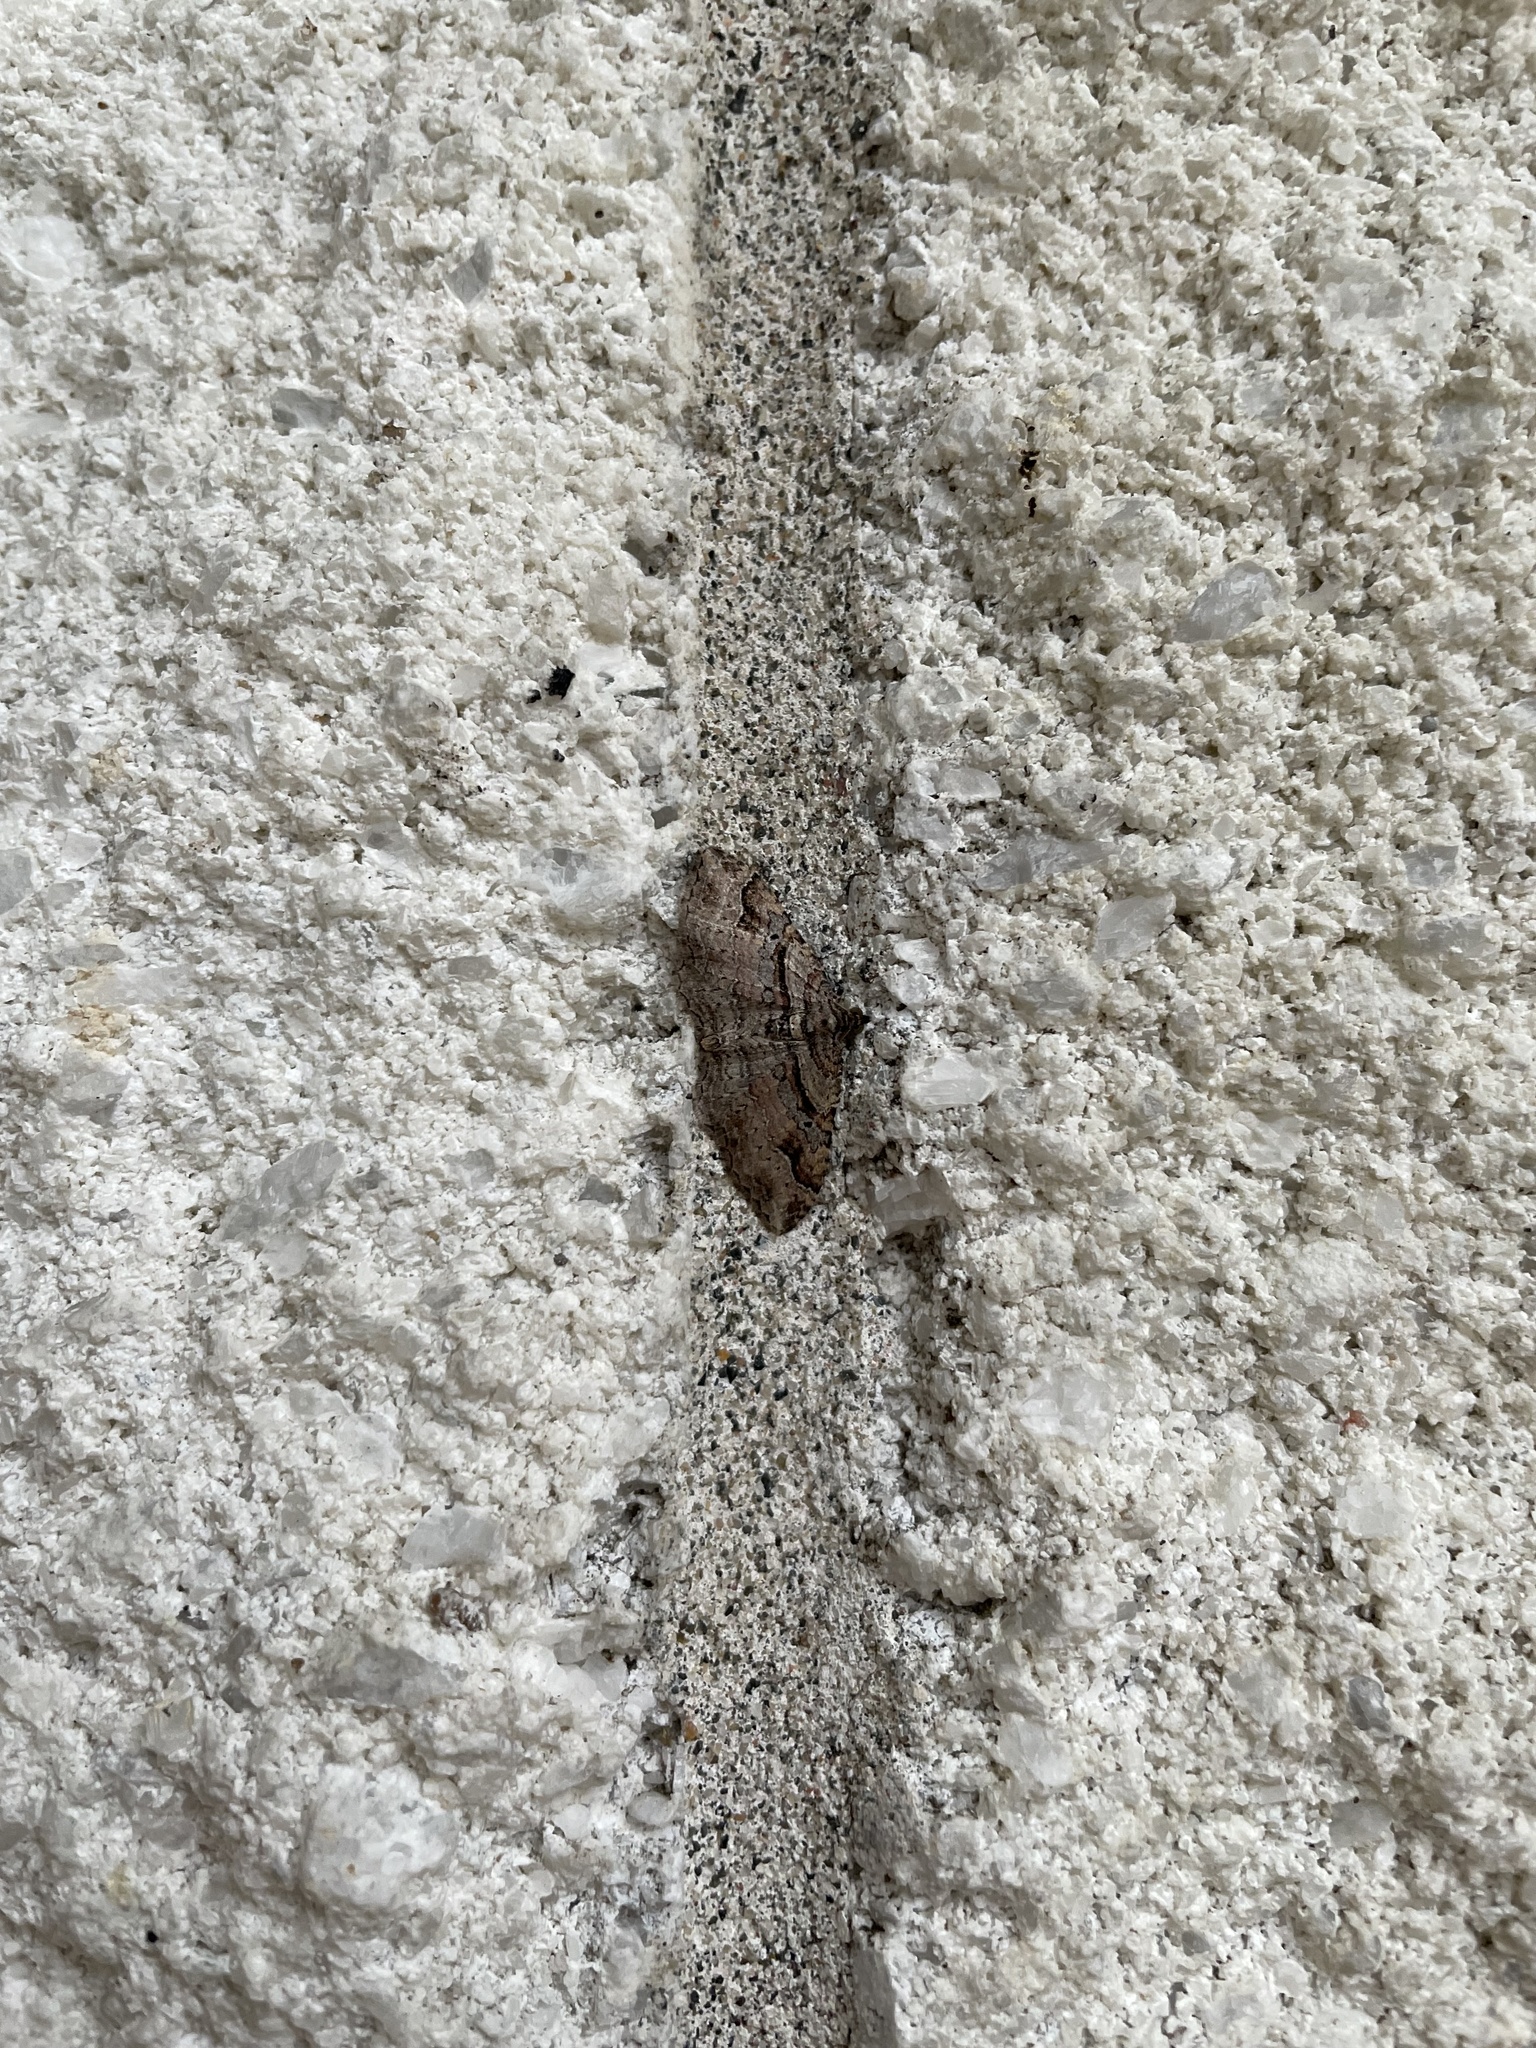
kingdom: Animalia
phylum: Arthropoda
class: Insecta
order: Lepidoptera
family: Geometridae
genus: Costaconvexa
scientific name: Costaconvexa centrostrigaria
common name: Bent-line carpet
